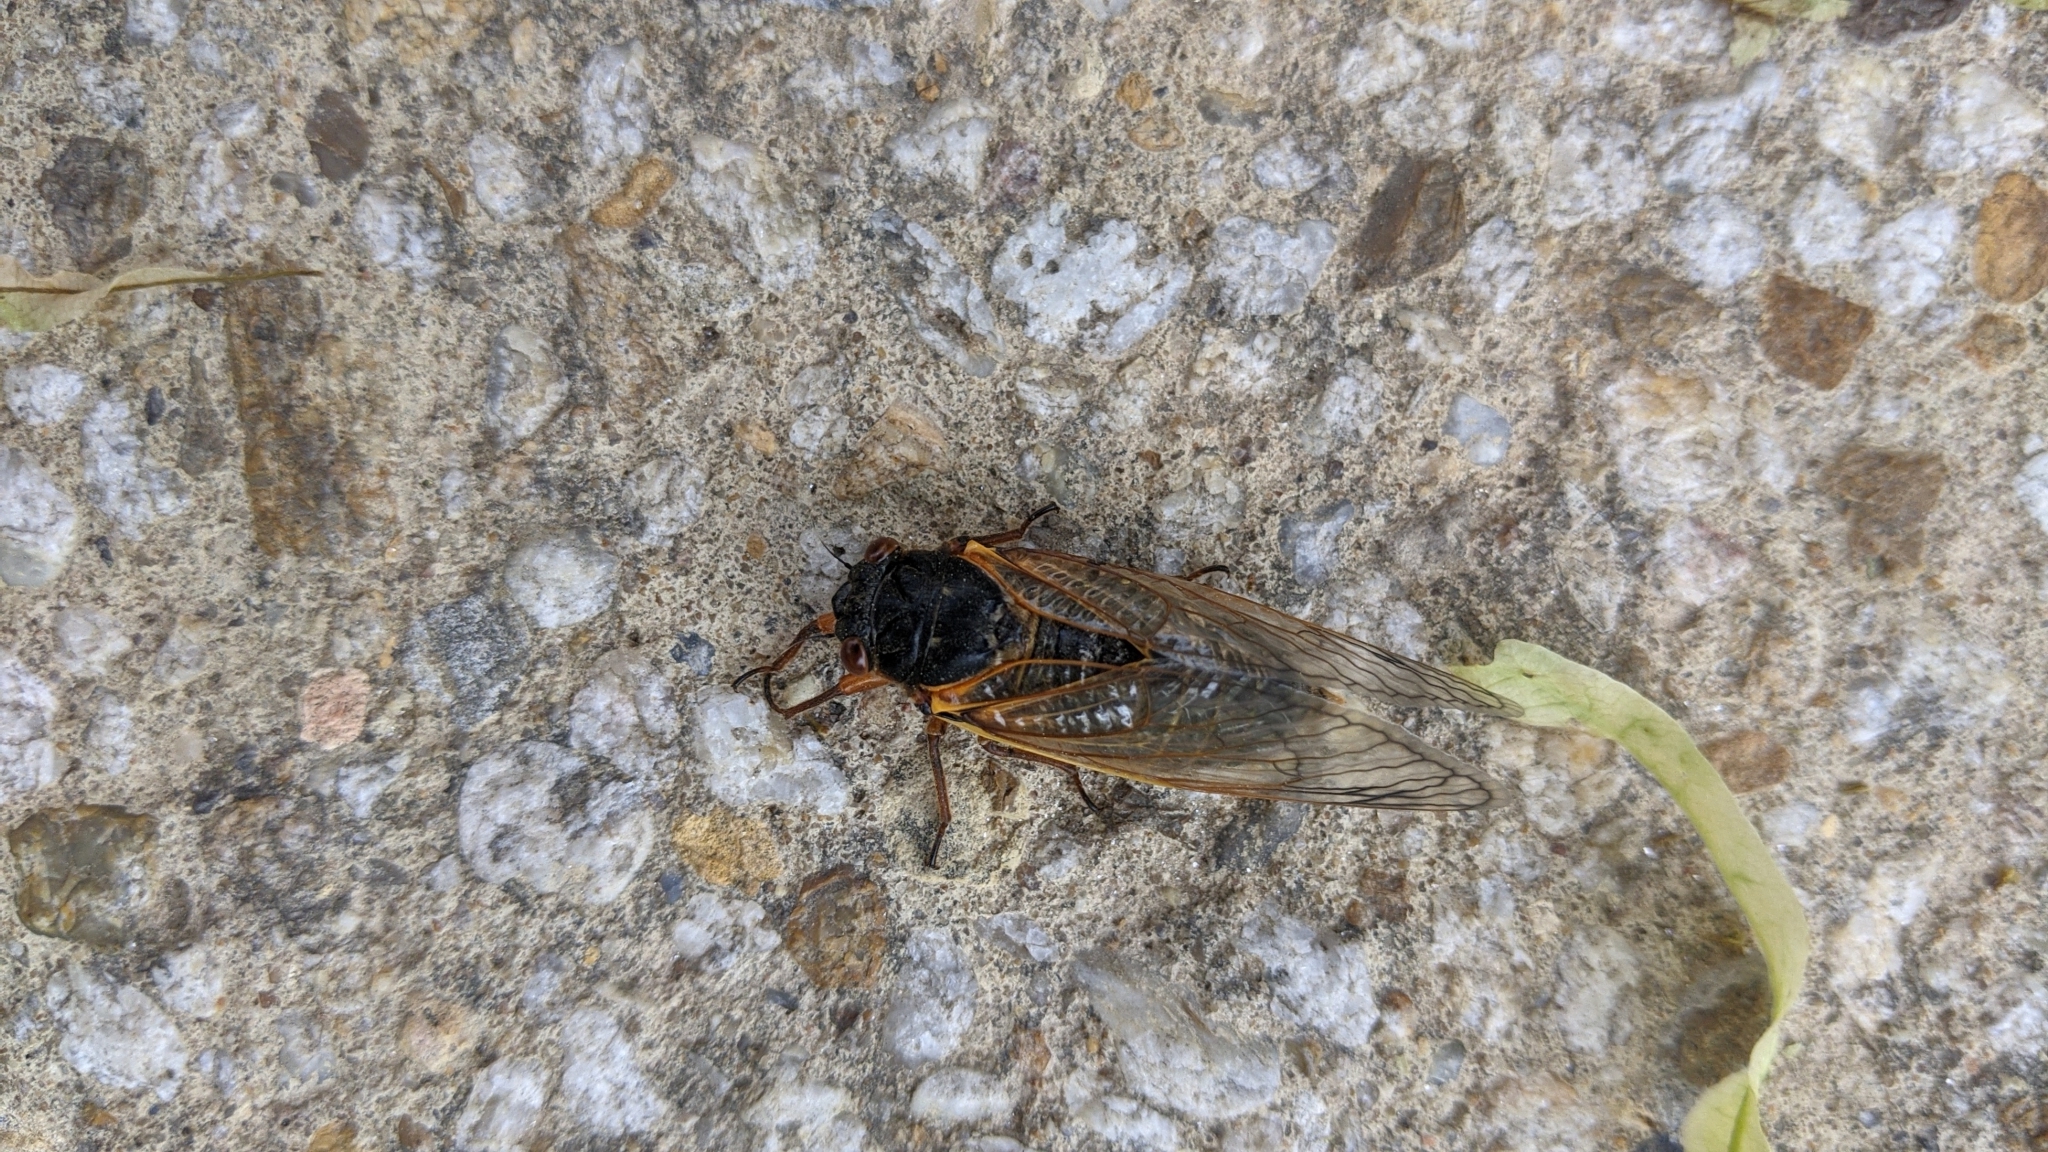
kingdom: Animalia
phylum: Arthropoda
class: Insecta
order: Hemiptera
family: Cicadidae
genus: Magicicada
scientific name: Magicicada
